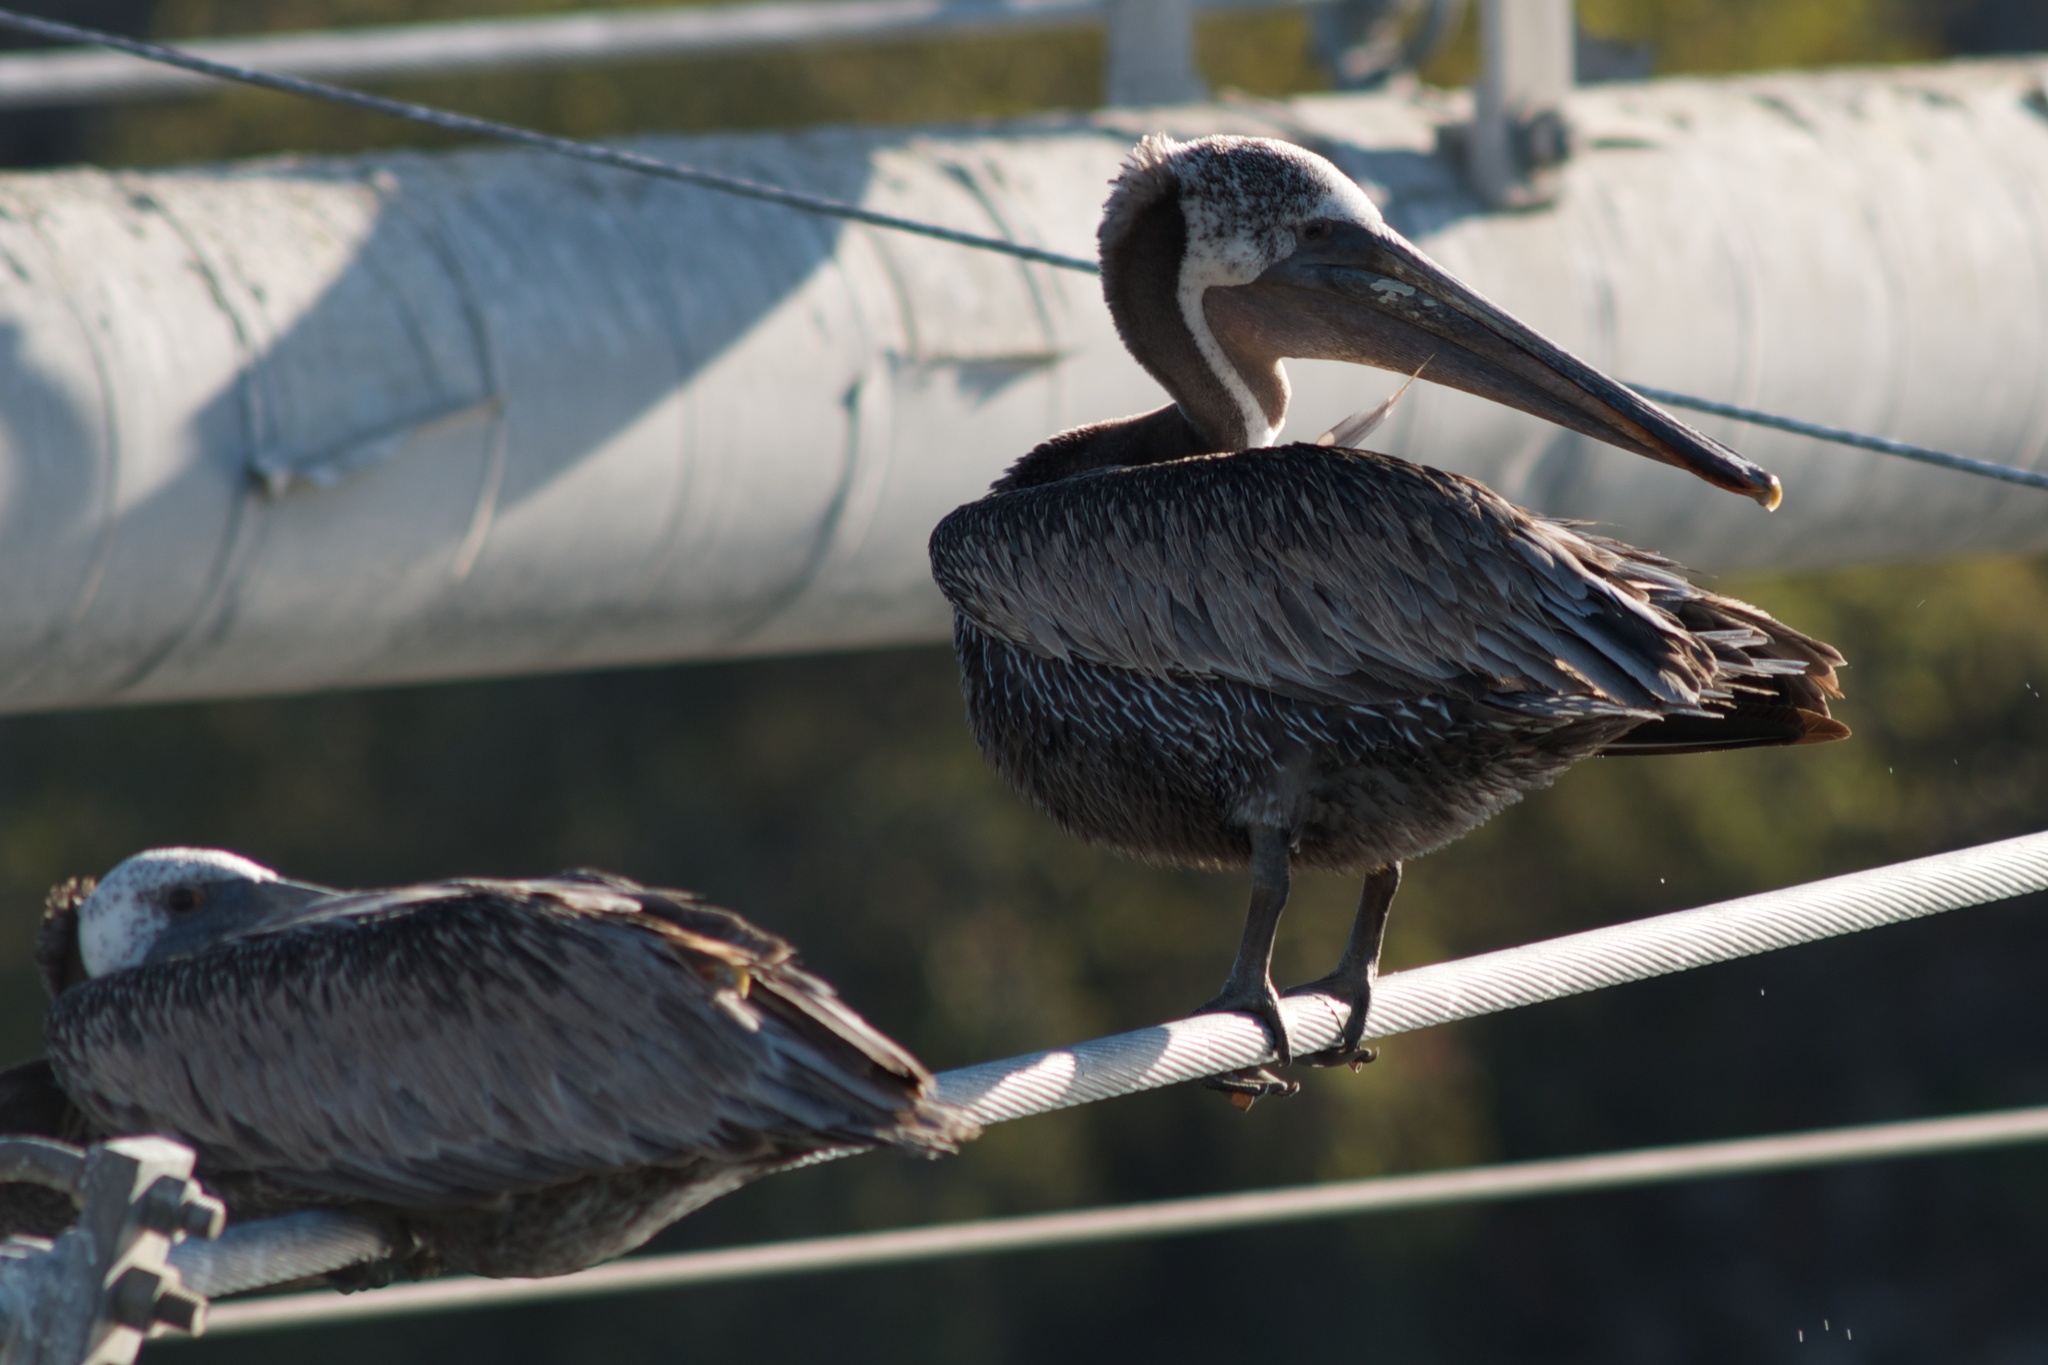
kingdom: Animalia
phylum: Chordata
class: Aves
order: Pelecaniformes
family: Pelecanidae
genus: Pelecanus
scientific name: Pelecanus occidentalis
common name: Brown pelican
